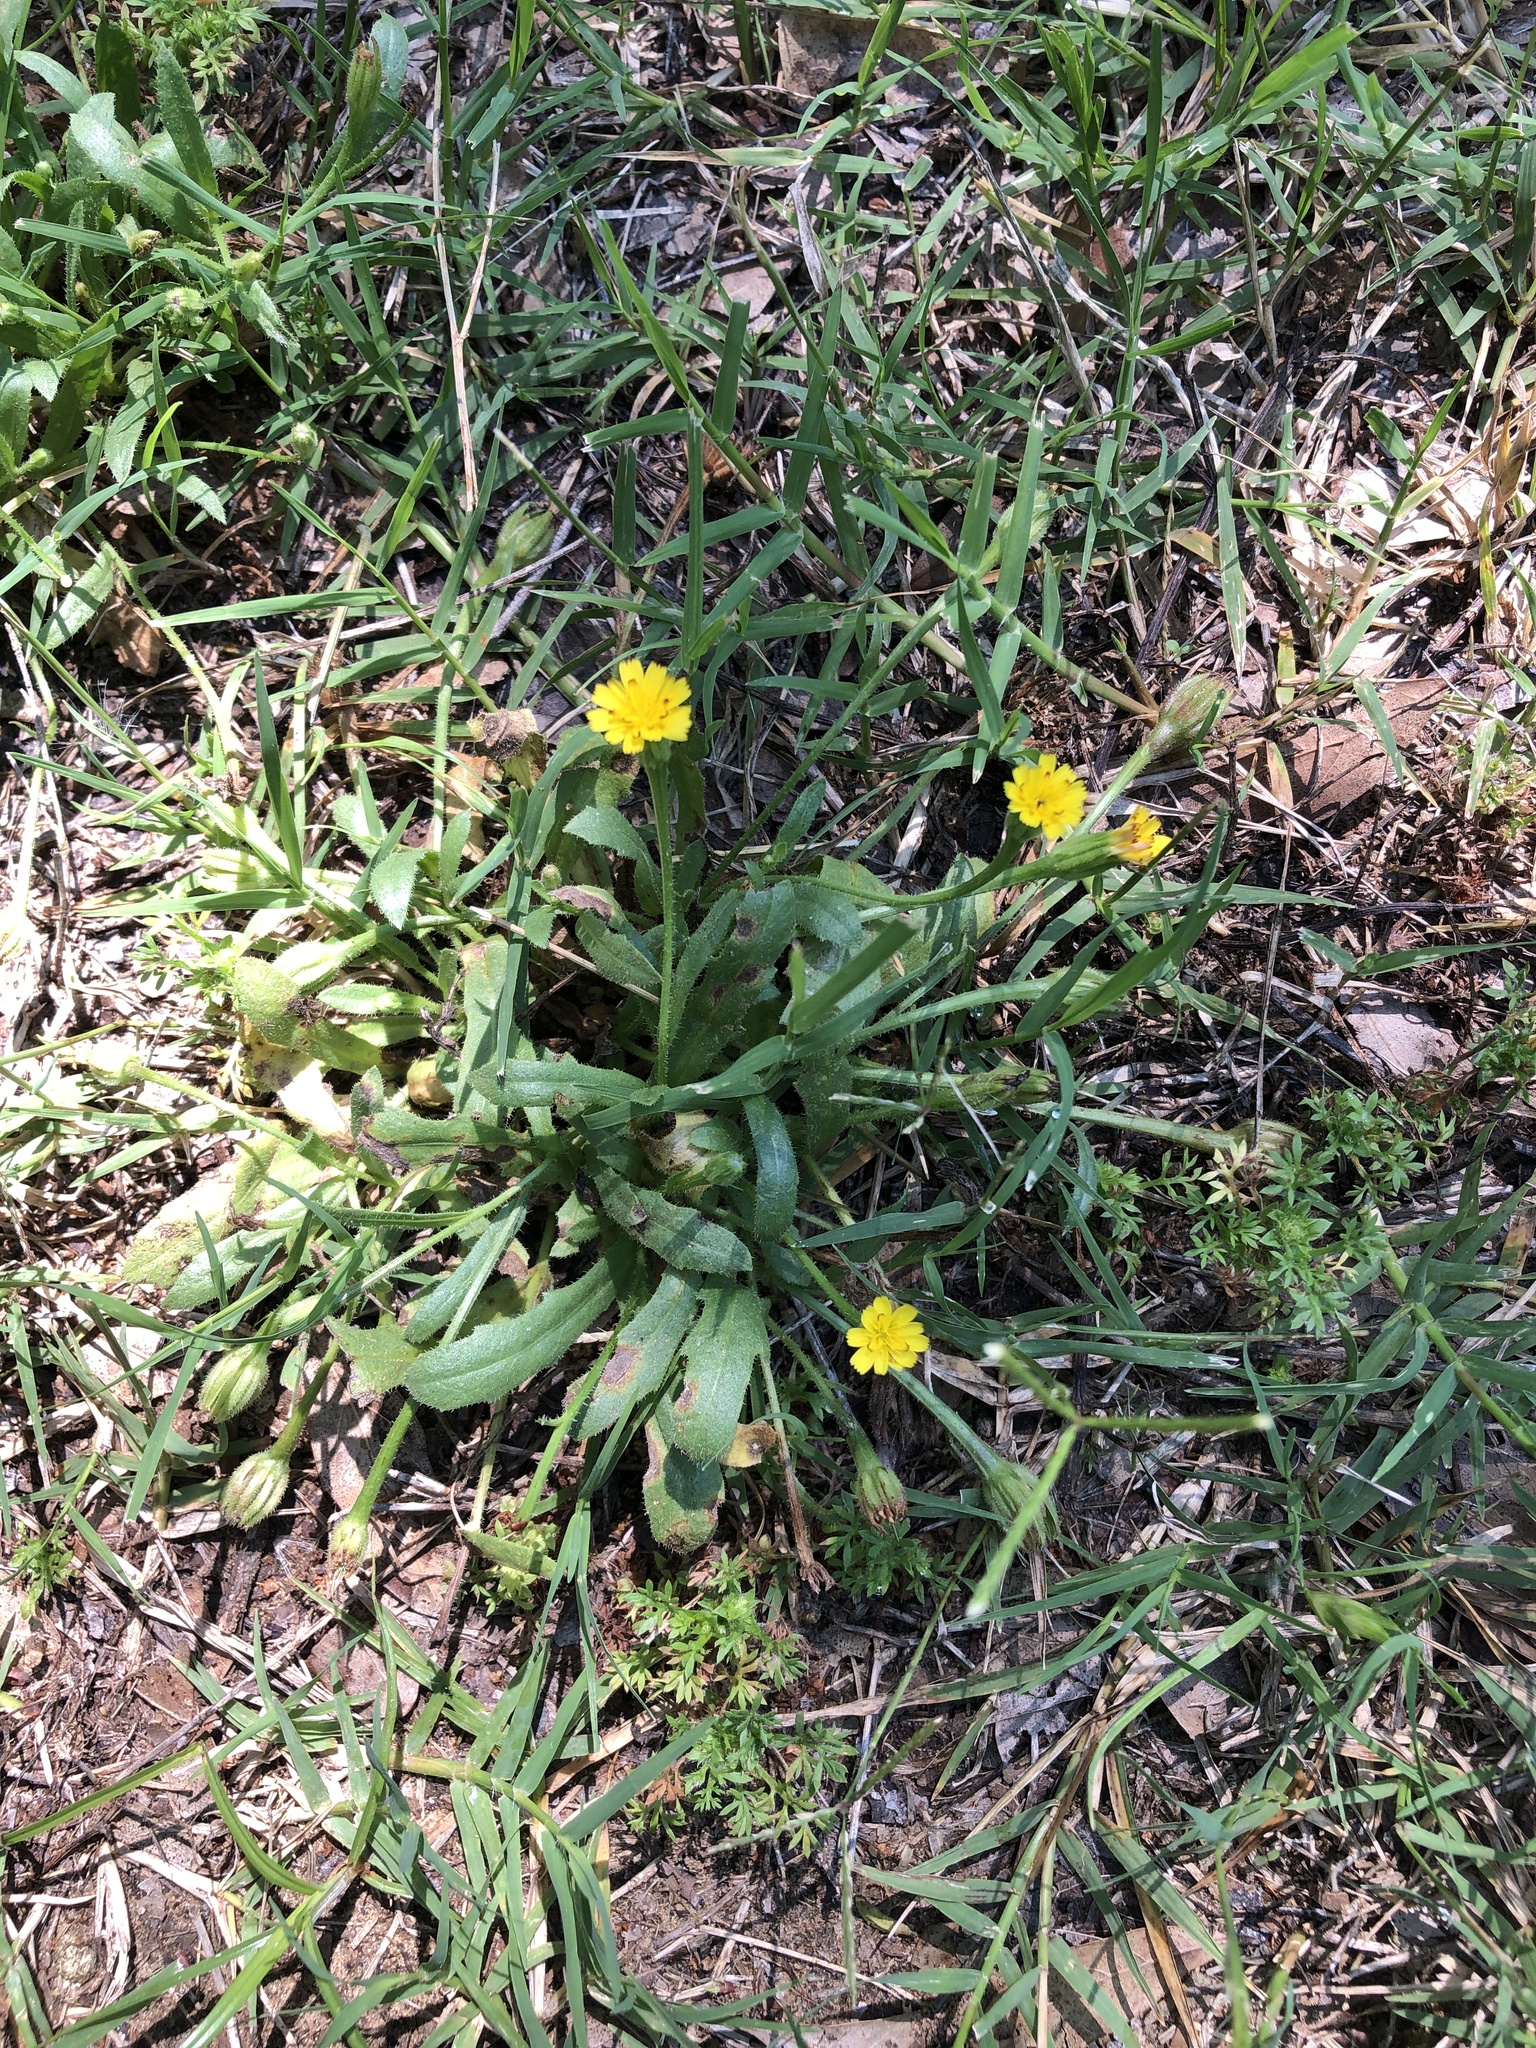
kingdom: Plantae
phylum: Tracheophyta
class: Magnoliopsida
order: Asterales
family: Asteraceae
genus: Hedypnois
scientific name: Hedypnois rhagadioloides
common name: Cretan weed
